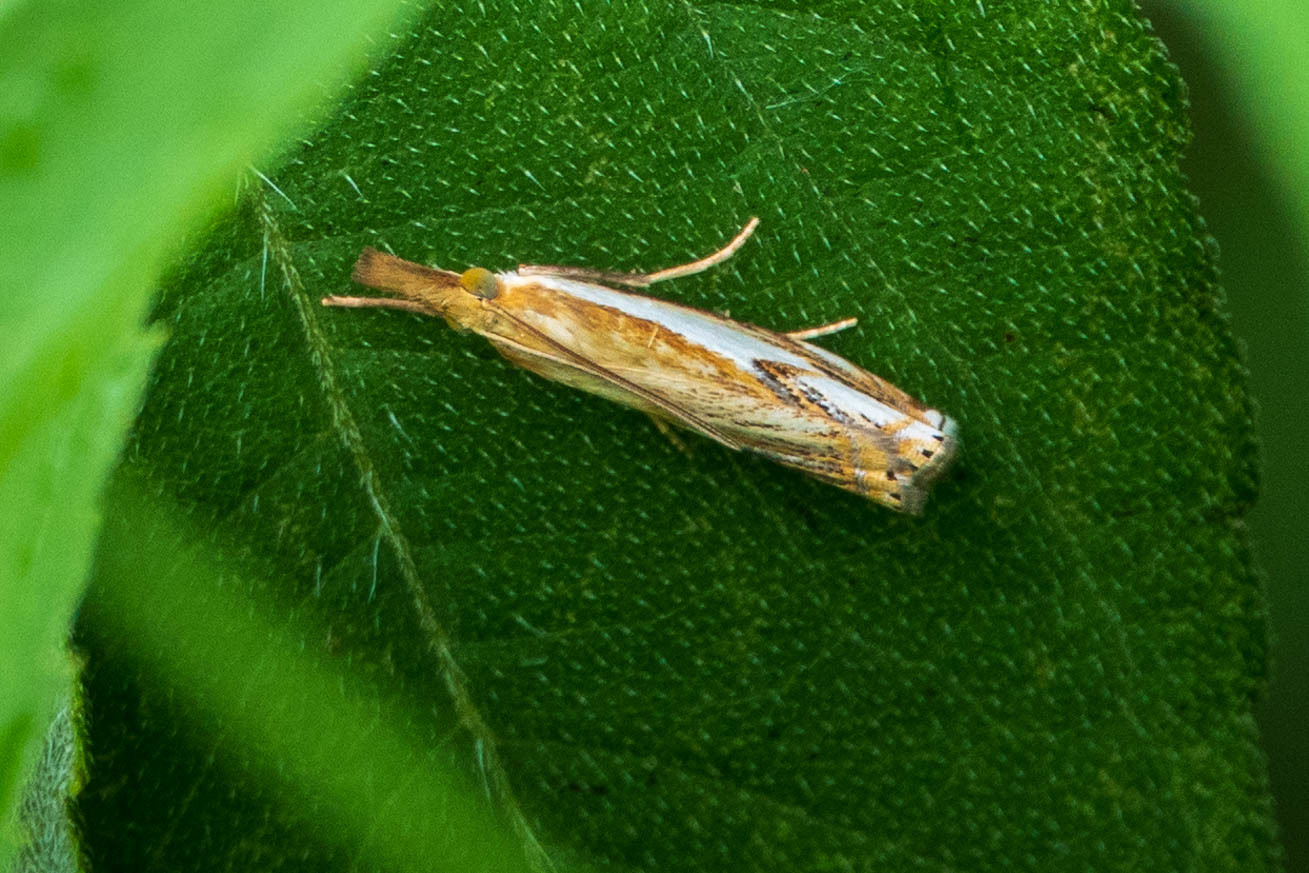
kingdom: Animalia
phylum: Arthropoda
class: Insecta
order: Lepidoptera
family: Crambidae
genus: Crambus
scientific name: Crambus agitatellus
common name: Double-banded grass-veneer
